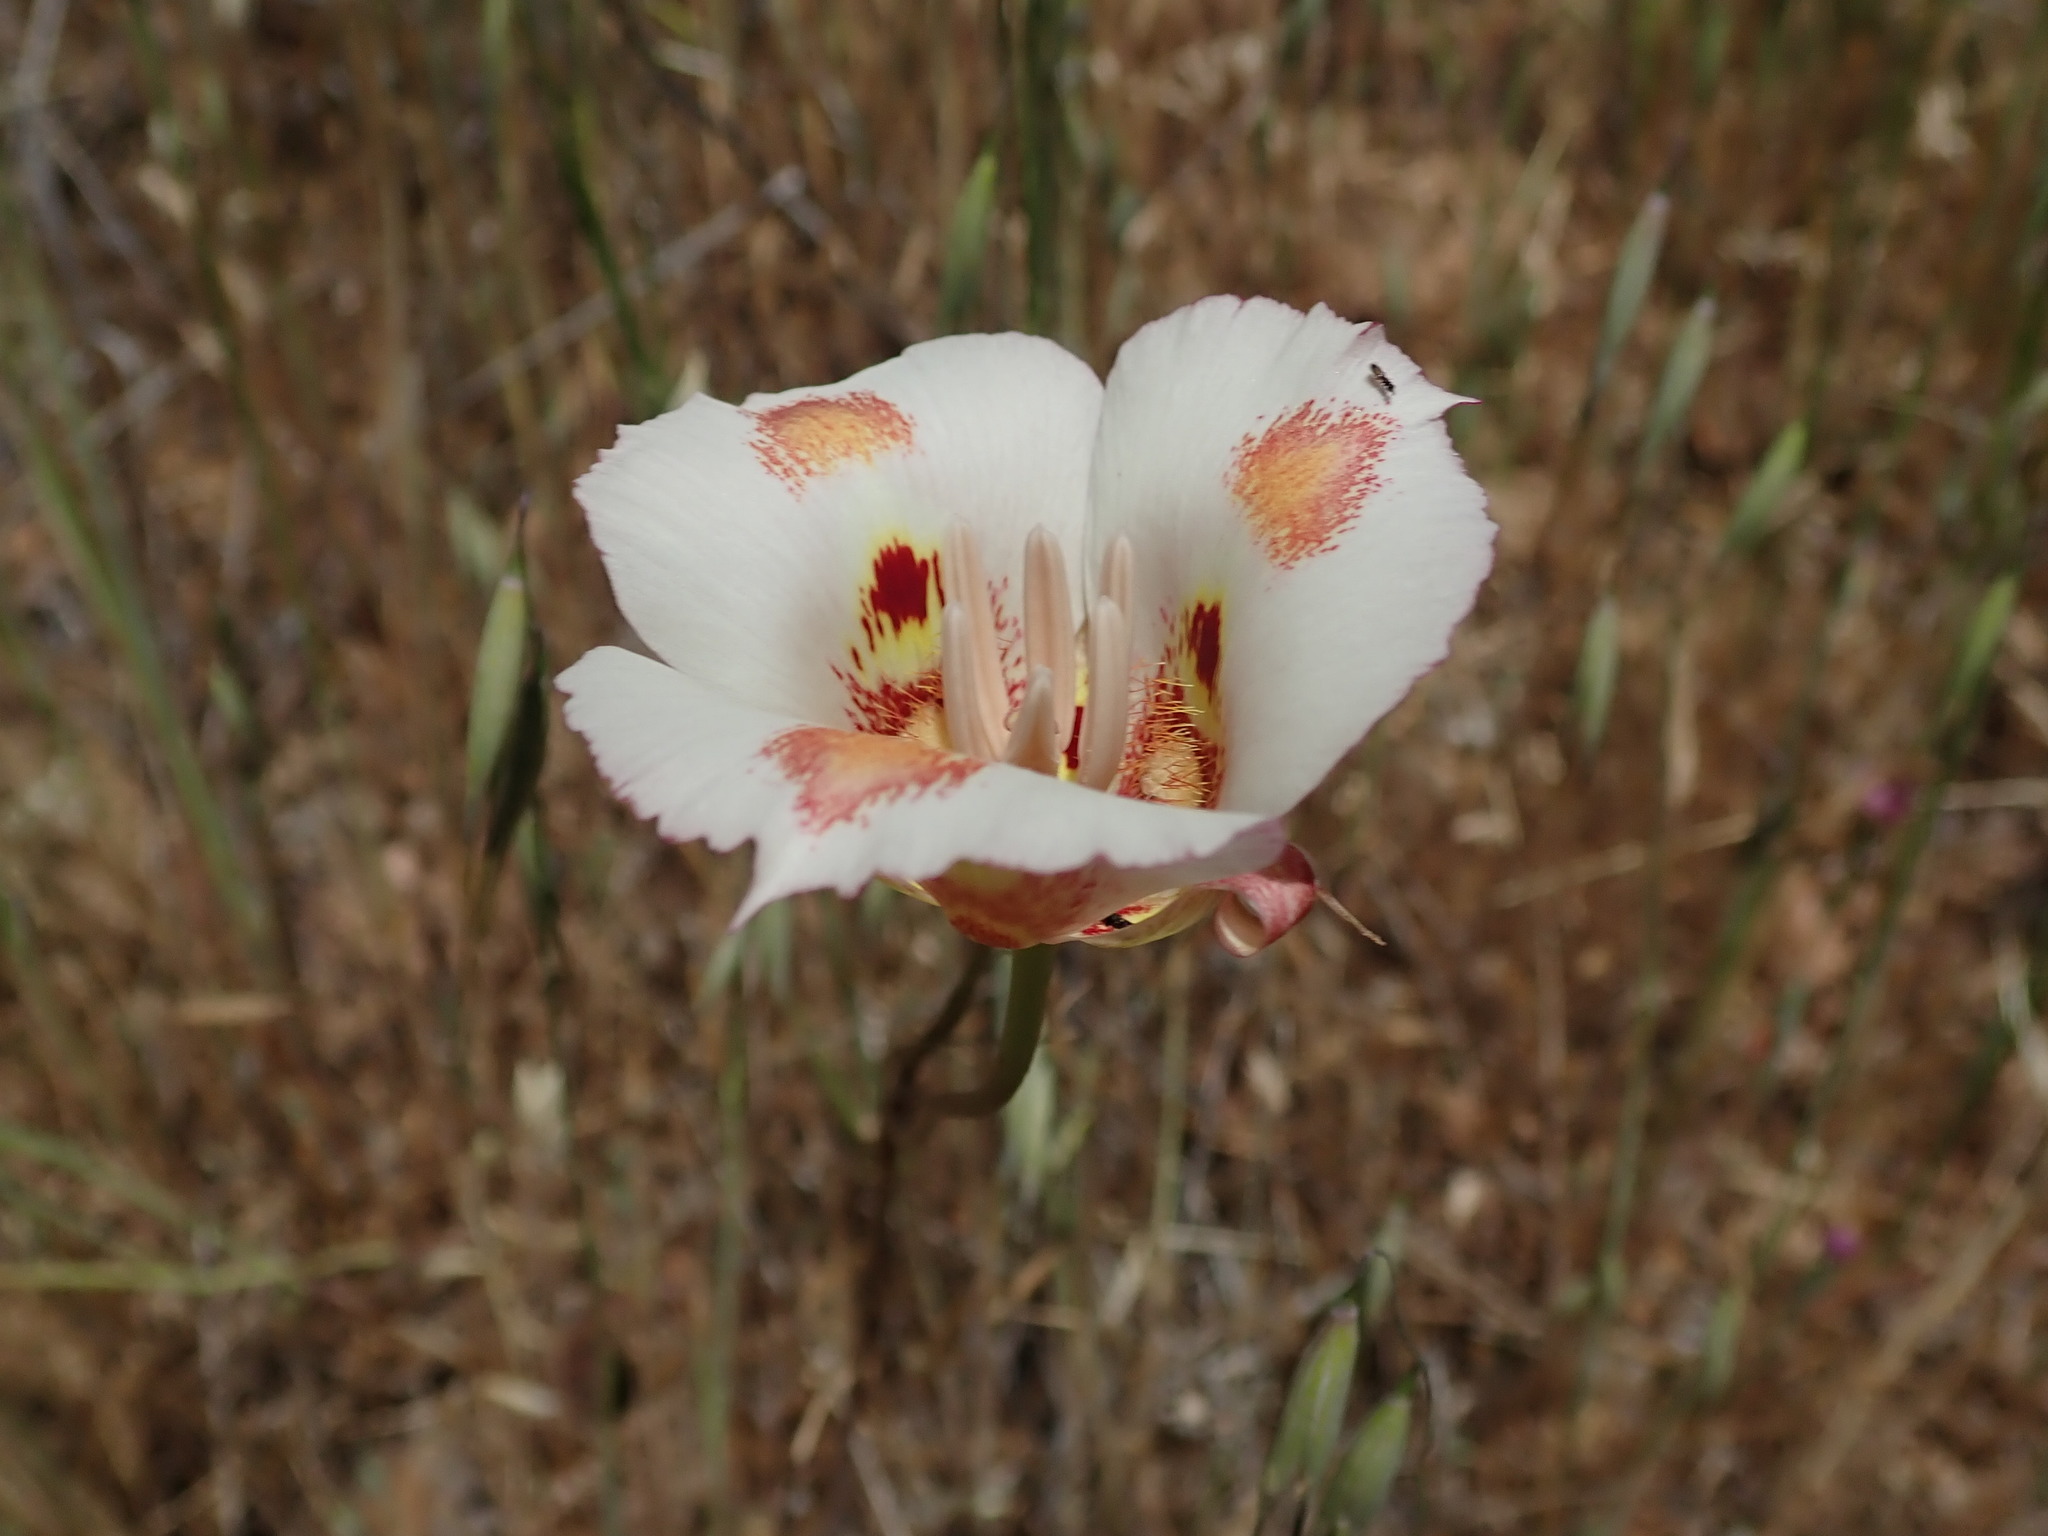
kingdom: Plantae
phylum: Tracheophyta
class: Liliopsida
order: Liliales
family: Liliaceae
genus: Calochortus
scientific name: Calochortus venustus
